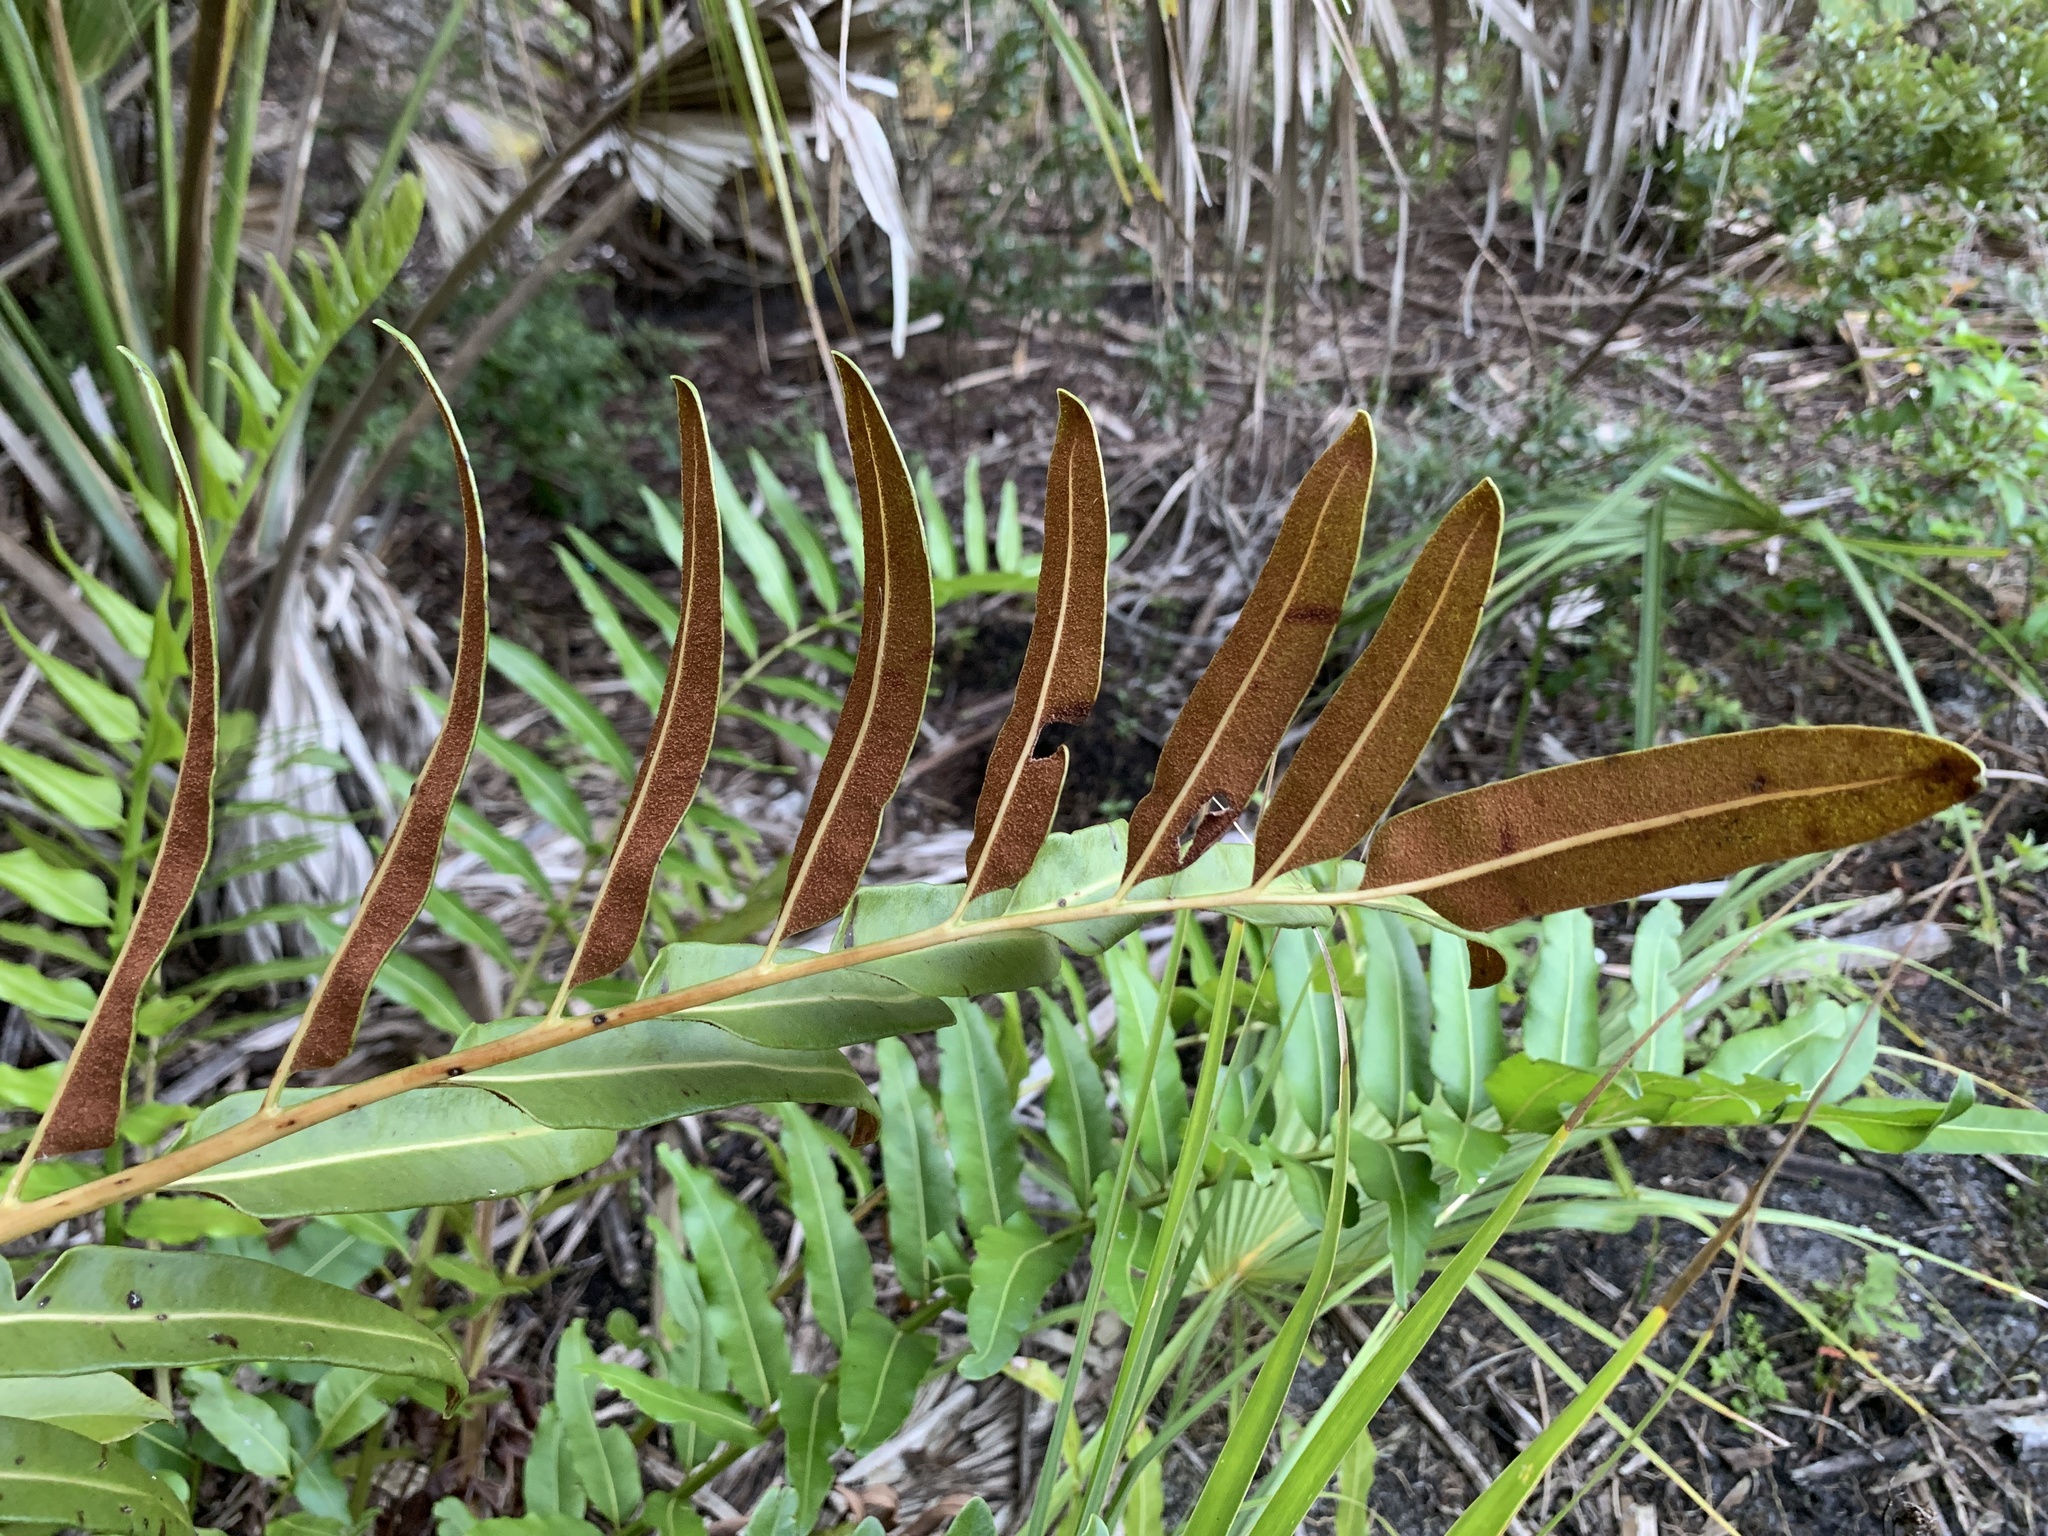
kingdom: Plantae
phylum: Tracheophyta
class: Polypodiopsida
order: Polypodiales
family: Pteridaceae
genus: Acrostichum
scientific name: Acrostichum danaeifolium
